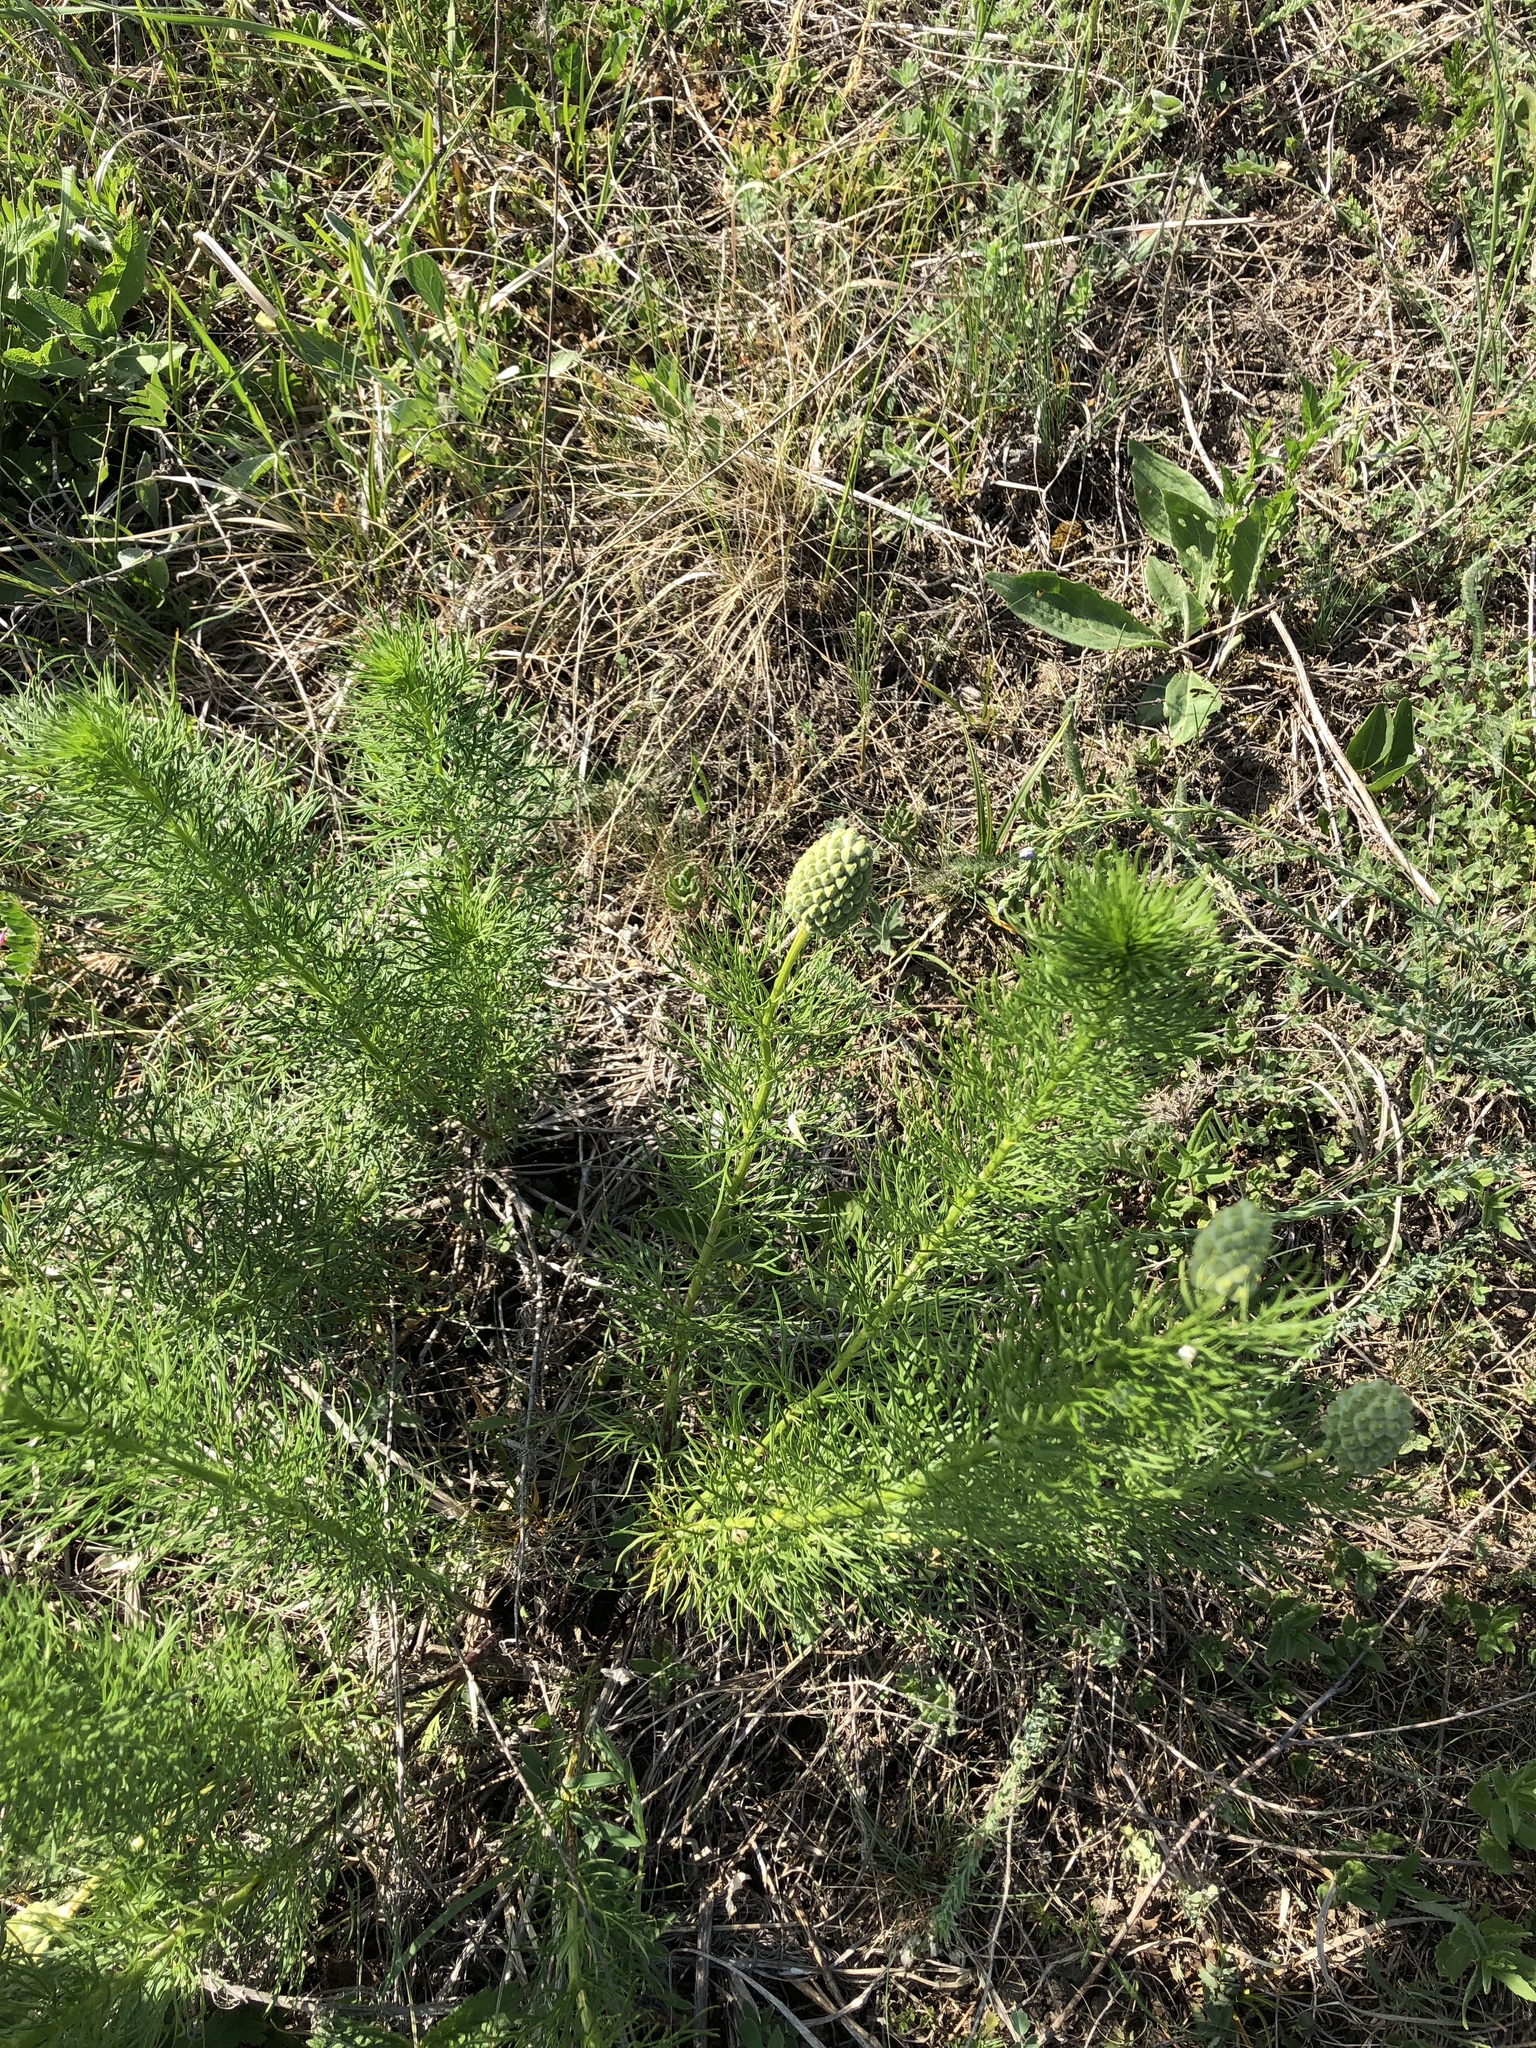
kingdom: Plantae
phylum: Tracheophyta
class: Magnoliopsida
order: Ranunculales
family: Ranunculaceae
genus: Adonis
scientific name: Adonis vernalis
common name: Yellow pheasants-eye
